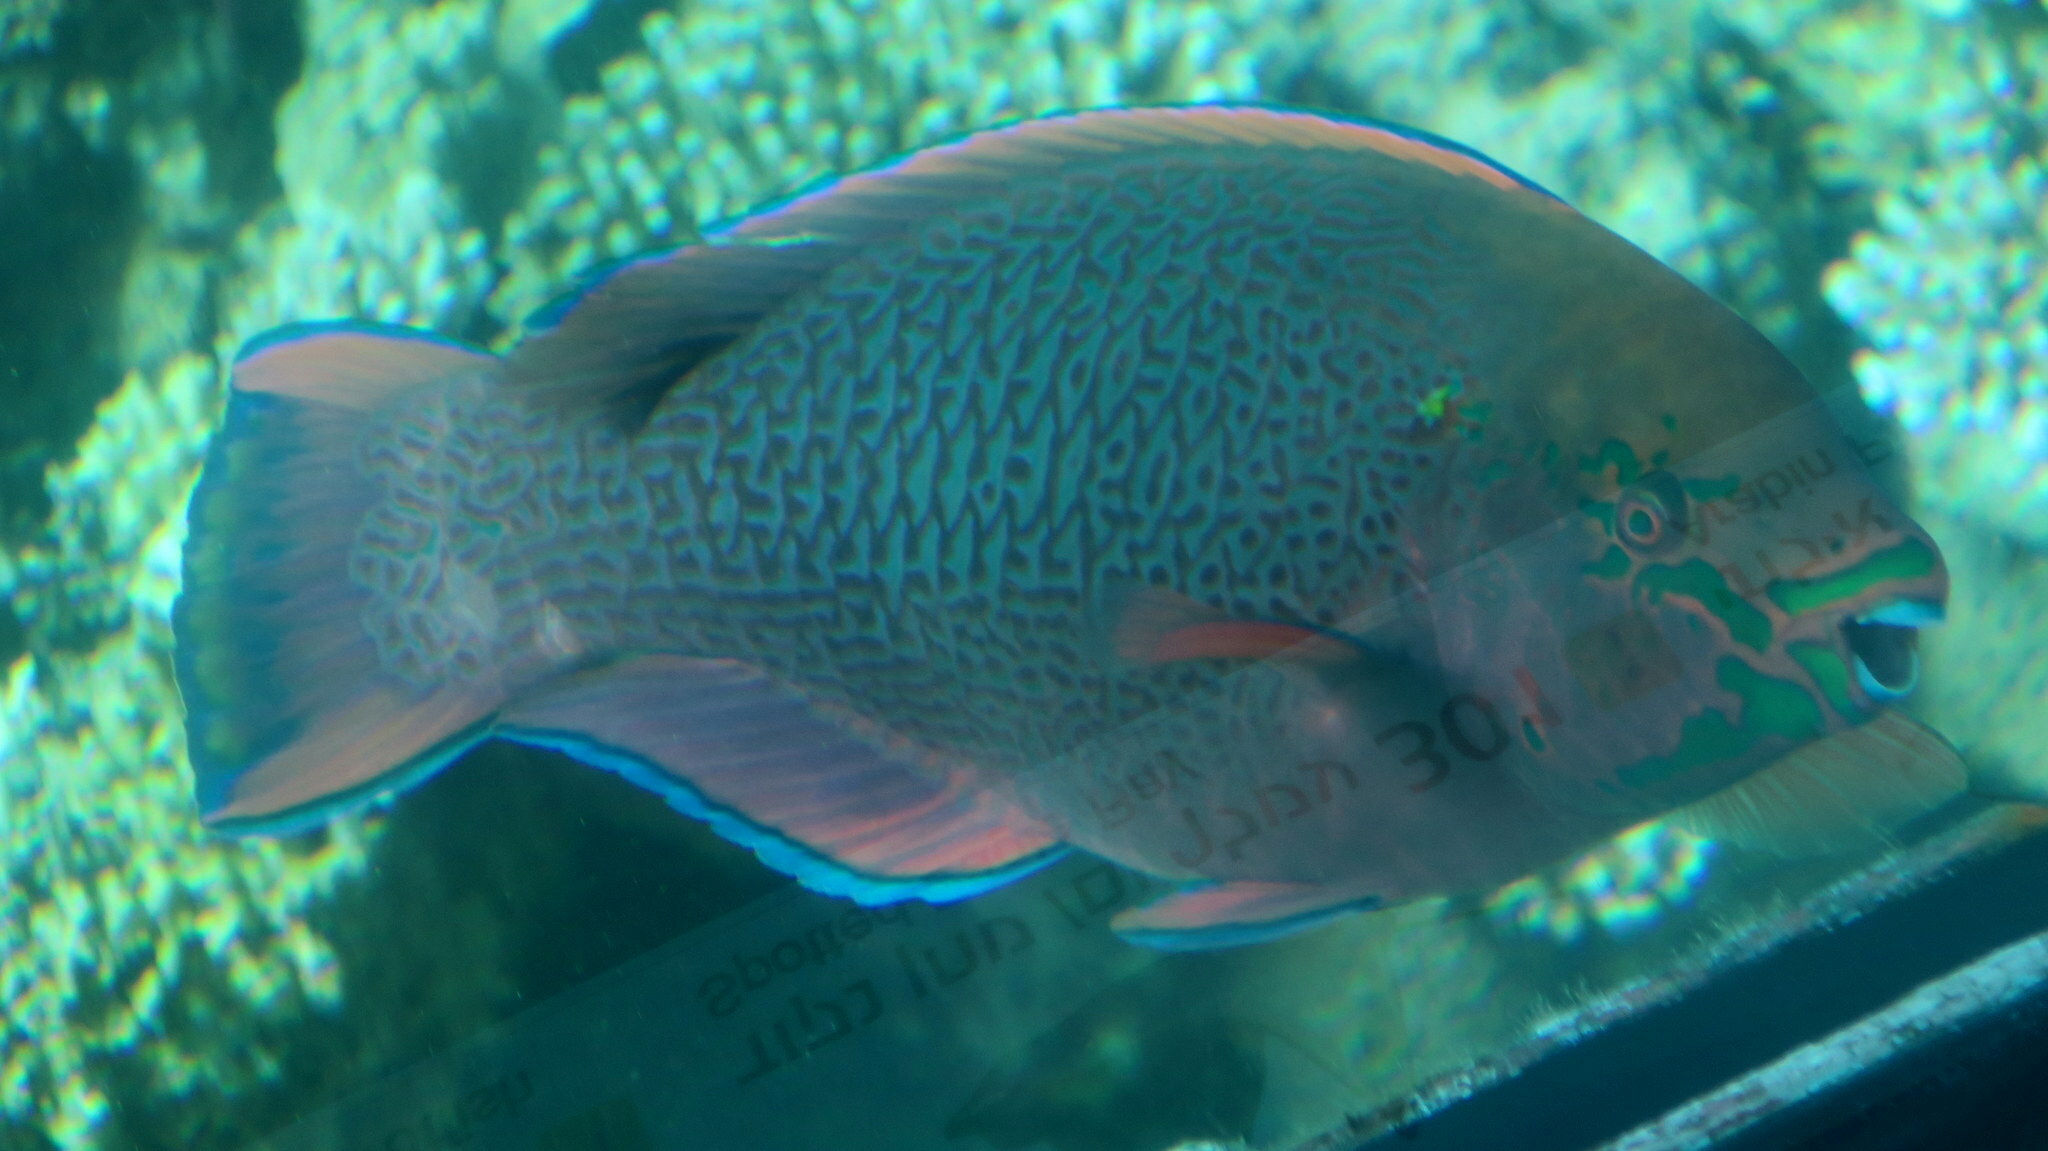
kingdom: Animalia
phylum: Chordata
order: Perciformes
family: Scaridae
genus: Scarus
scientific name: Scarus niger
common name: Dusky parrotfish
